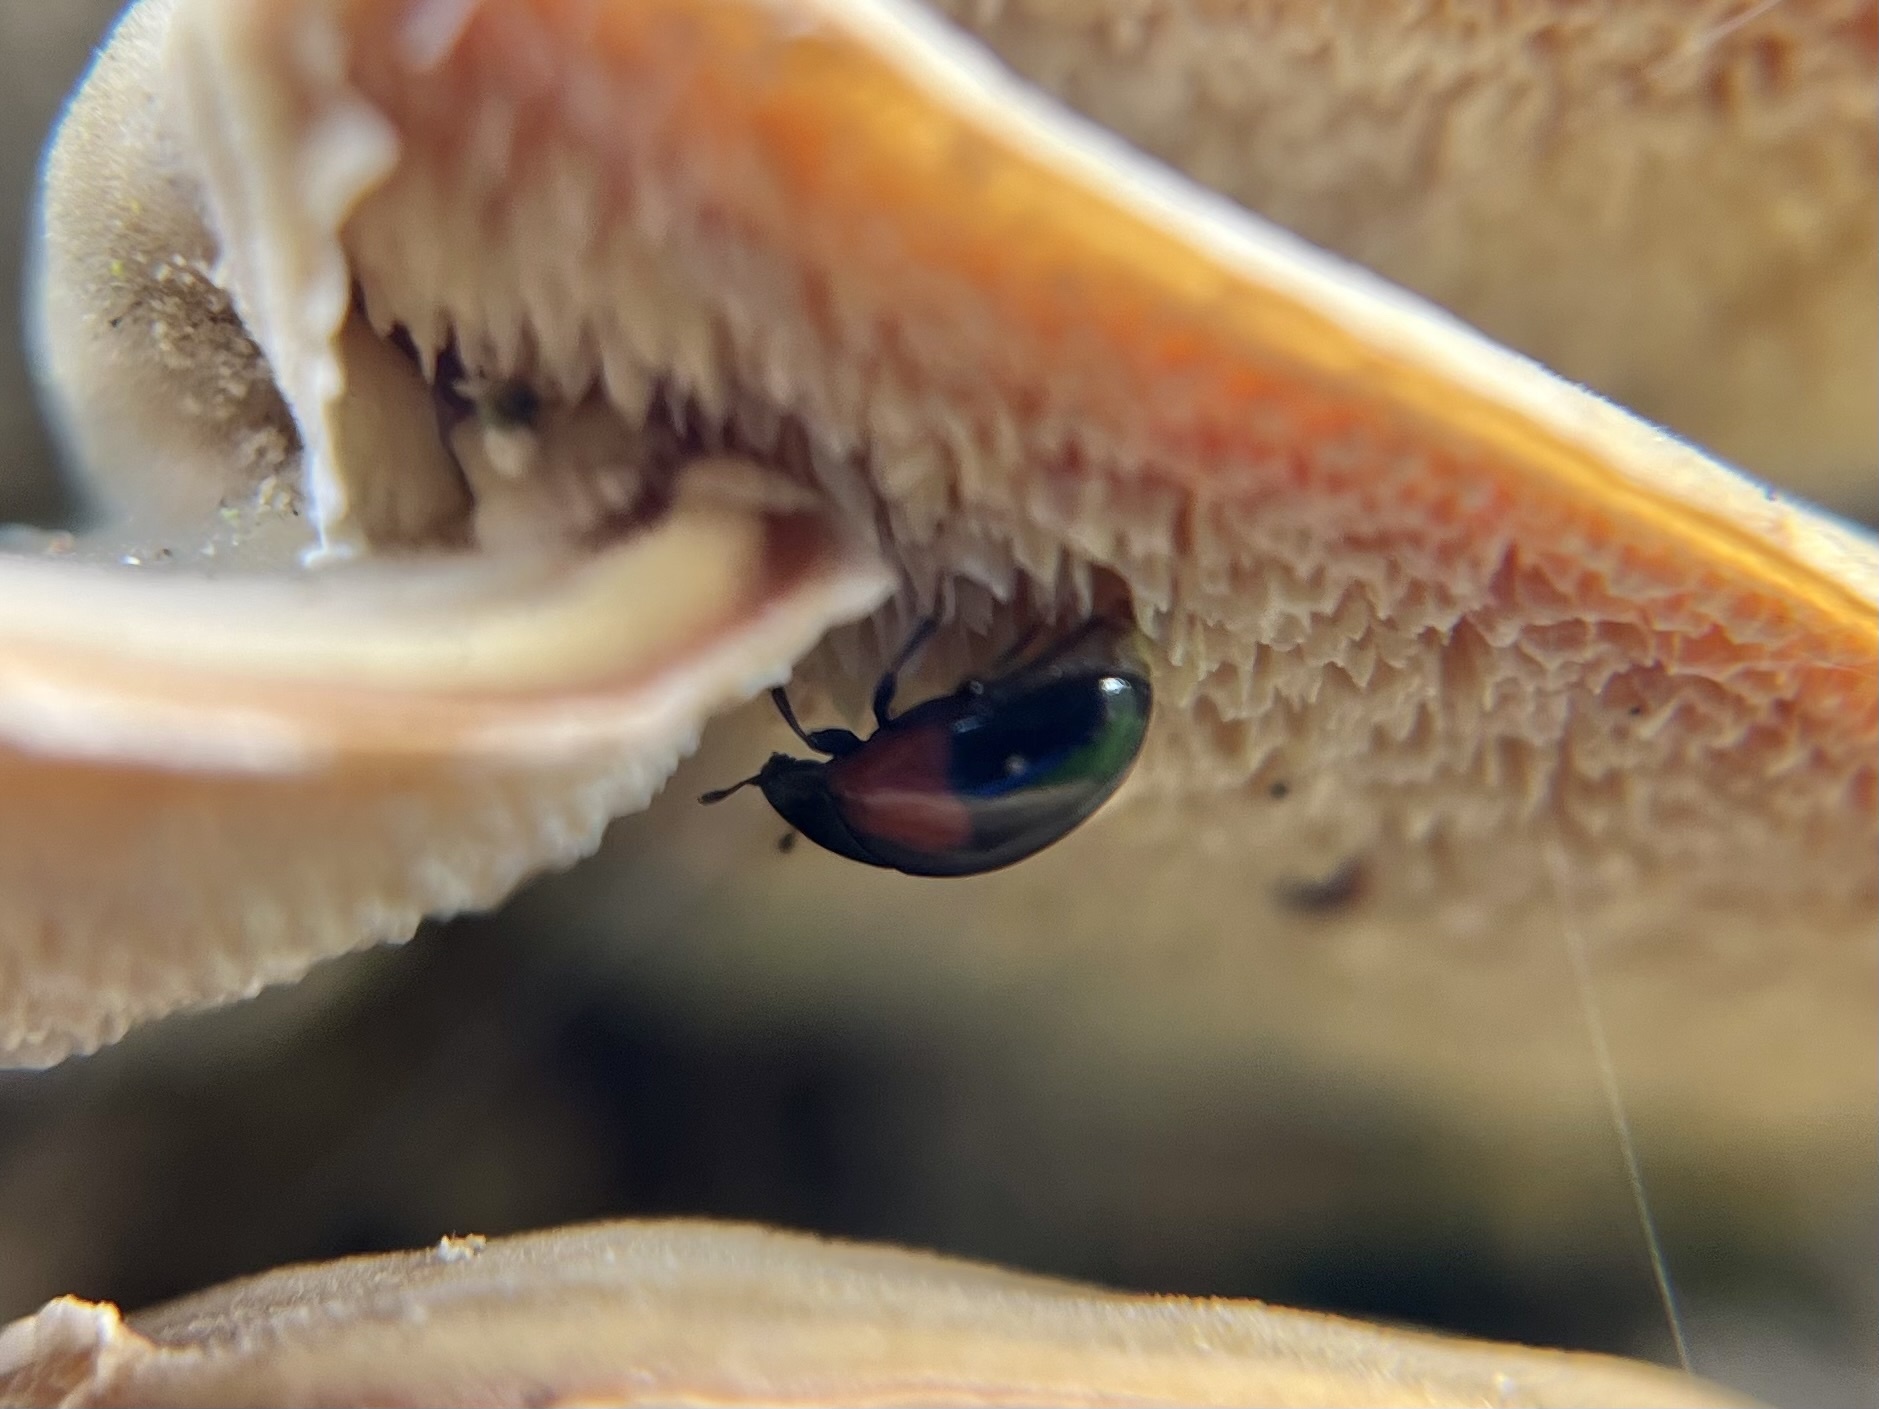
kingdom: Animalia
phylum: Arthropoda
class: Insecta
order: Coleoptera
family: Erotylidae
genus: Tritoma
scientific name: Tritoma bipustulata
